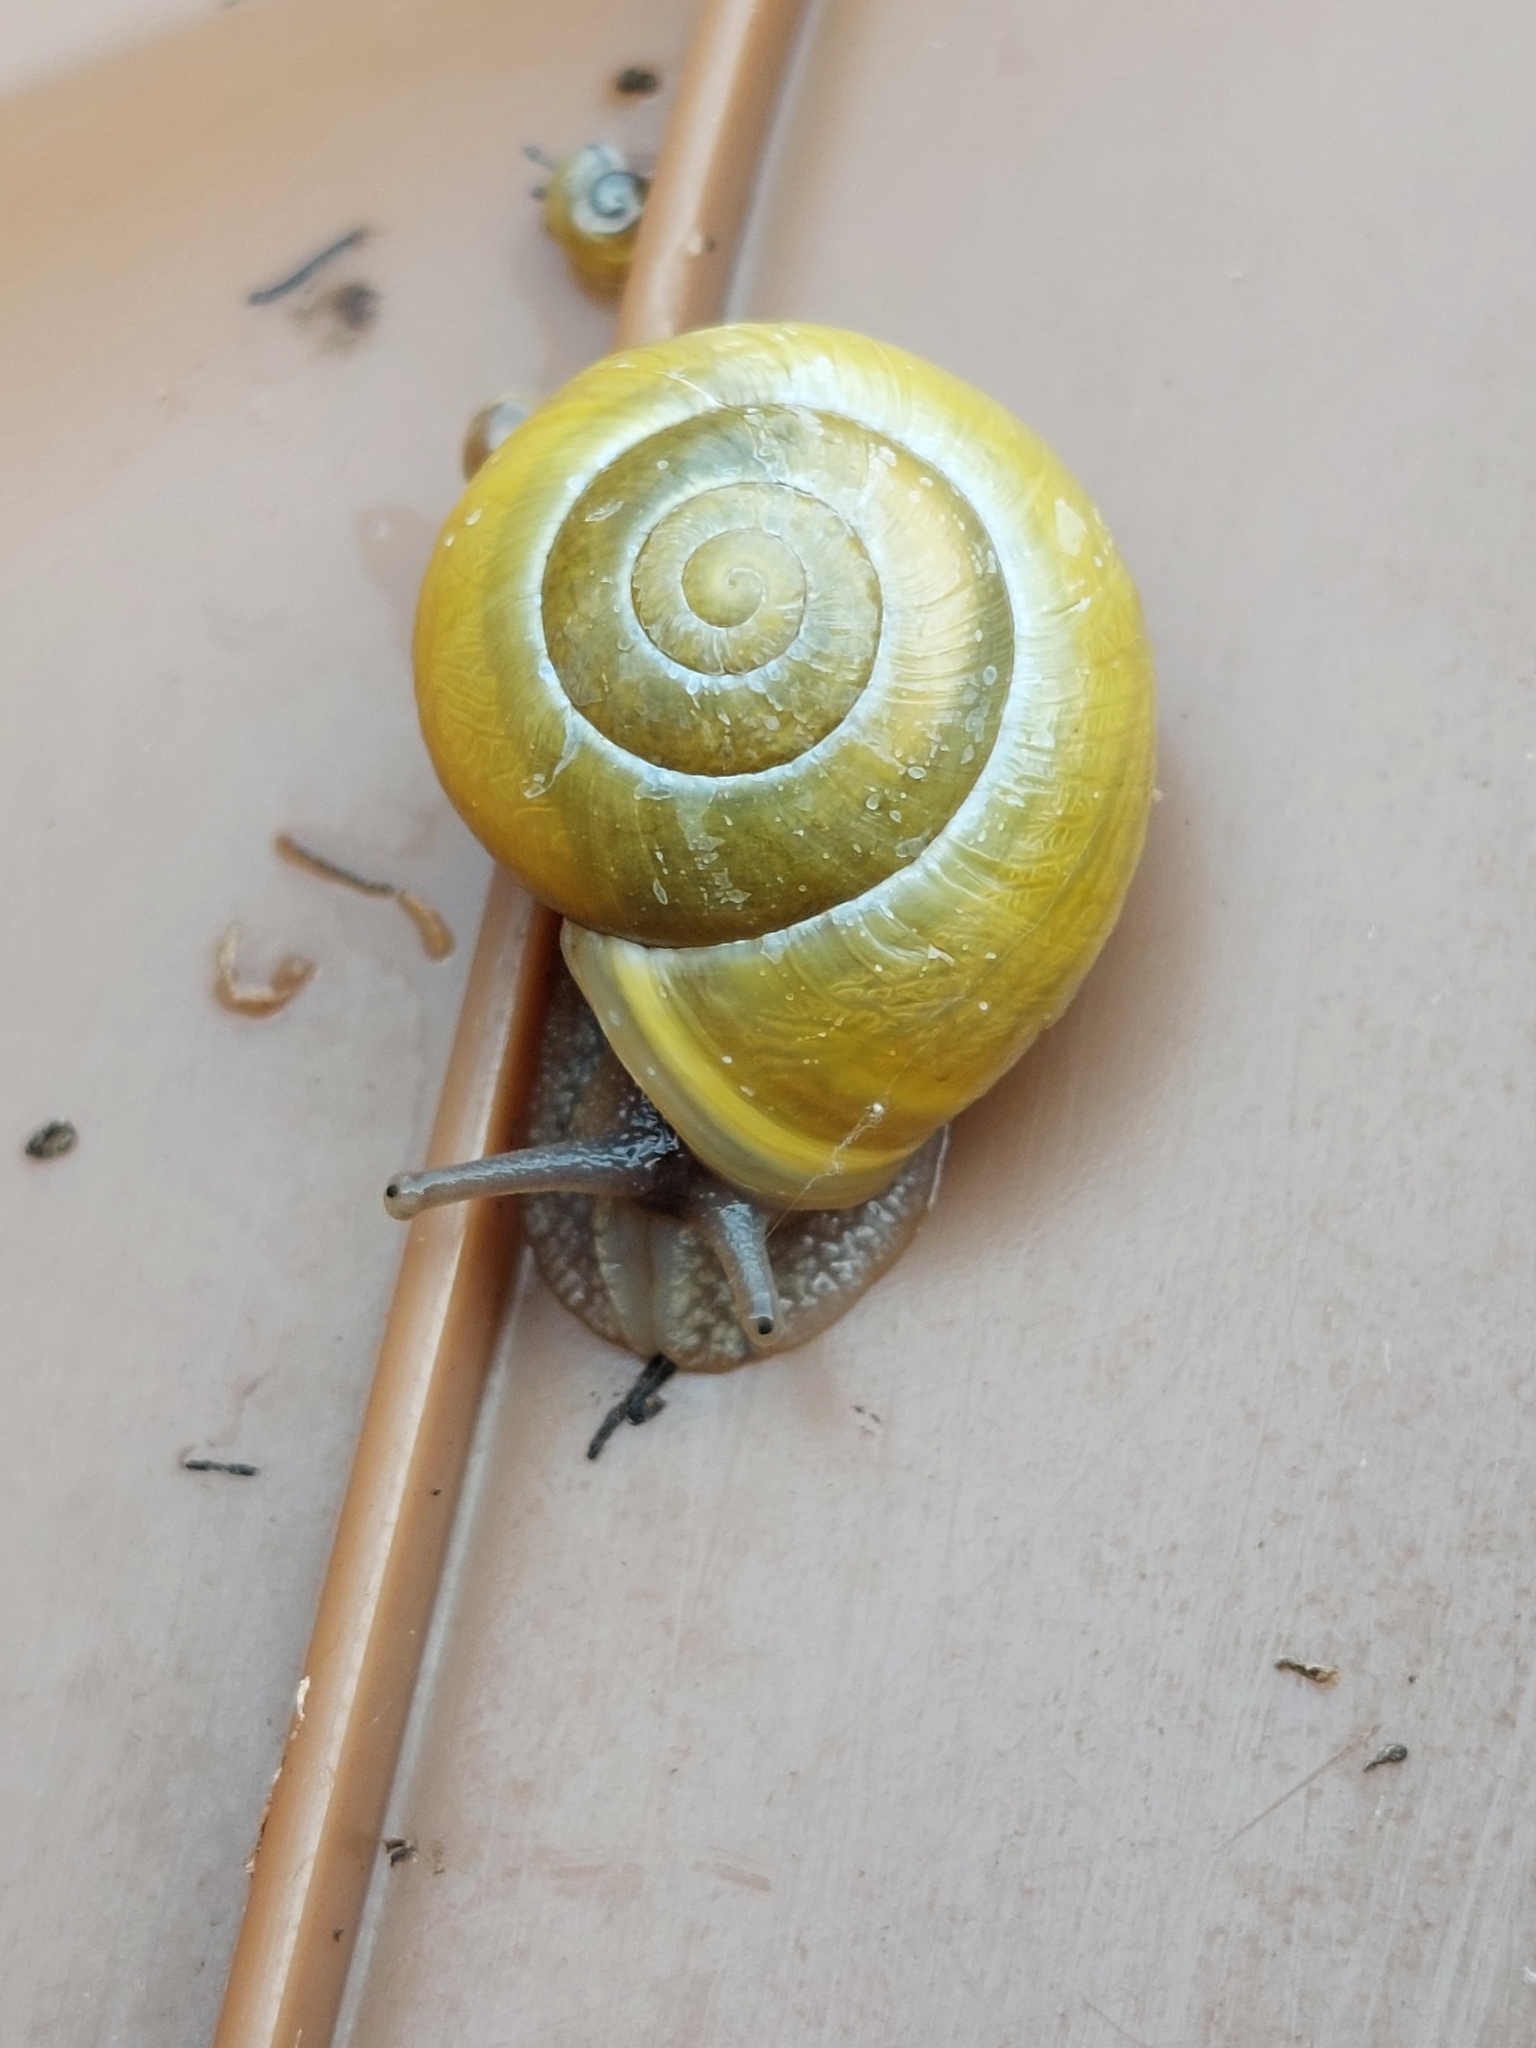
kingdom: Animalia
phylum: Mollusca
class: Gastropoda
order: Stylommatophora
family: Helicidae
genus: Cepaea
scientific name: Cepaea hortensis
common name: White-lip gardensnail
